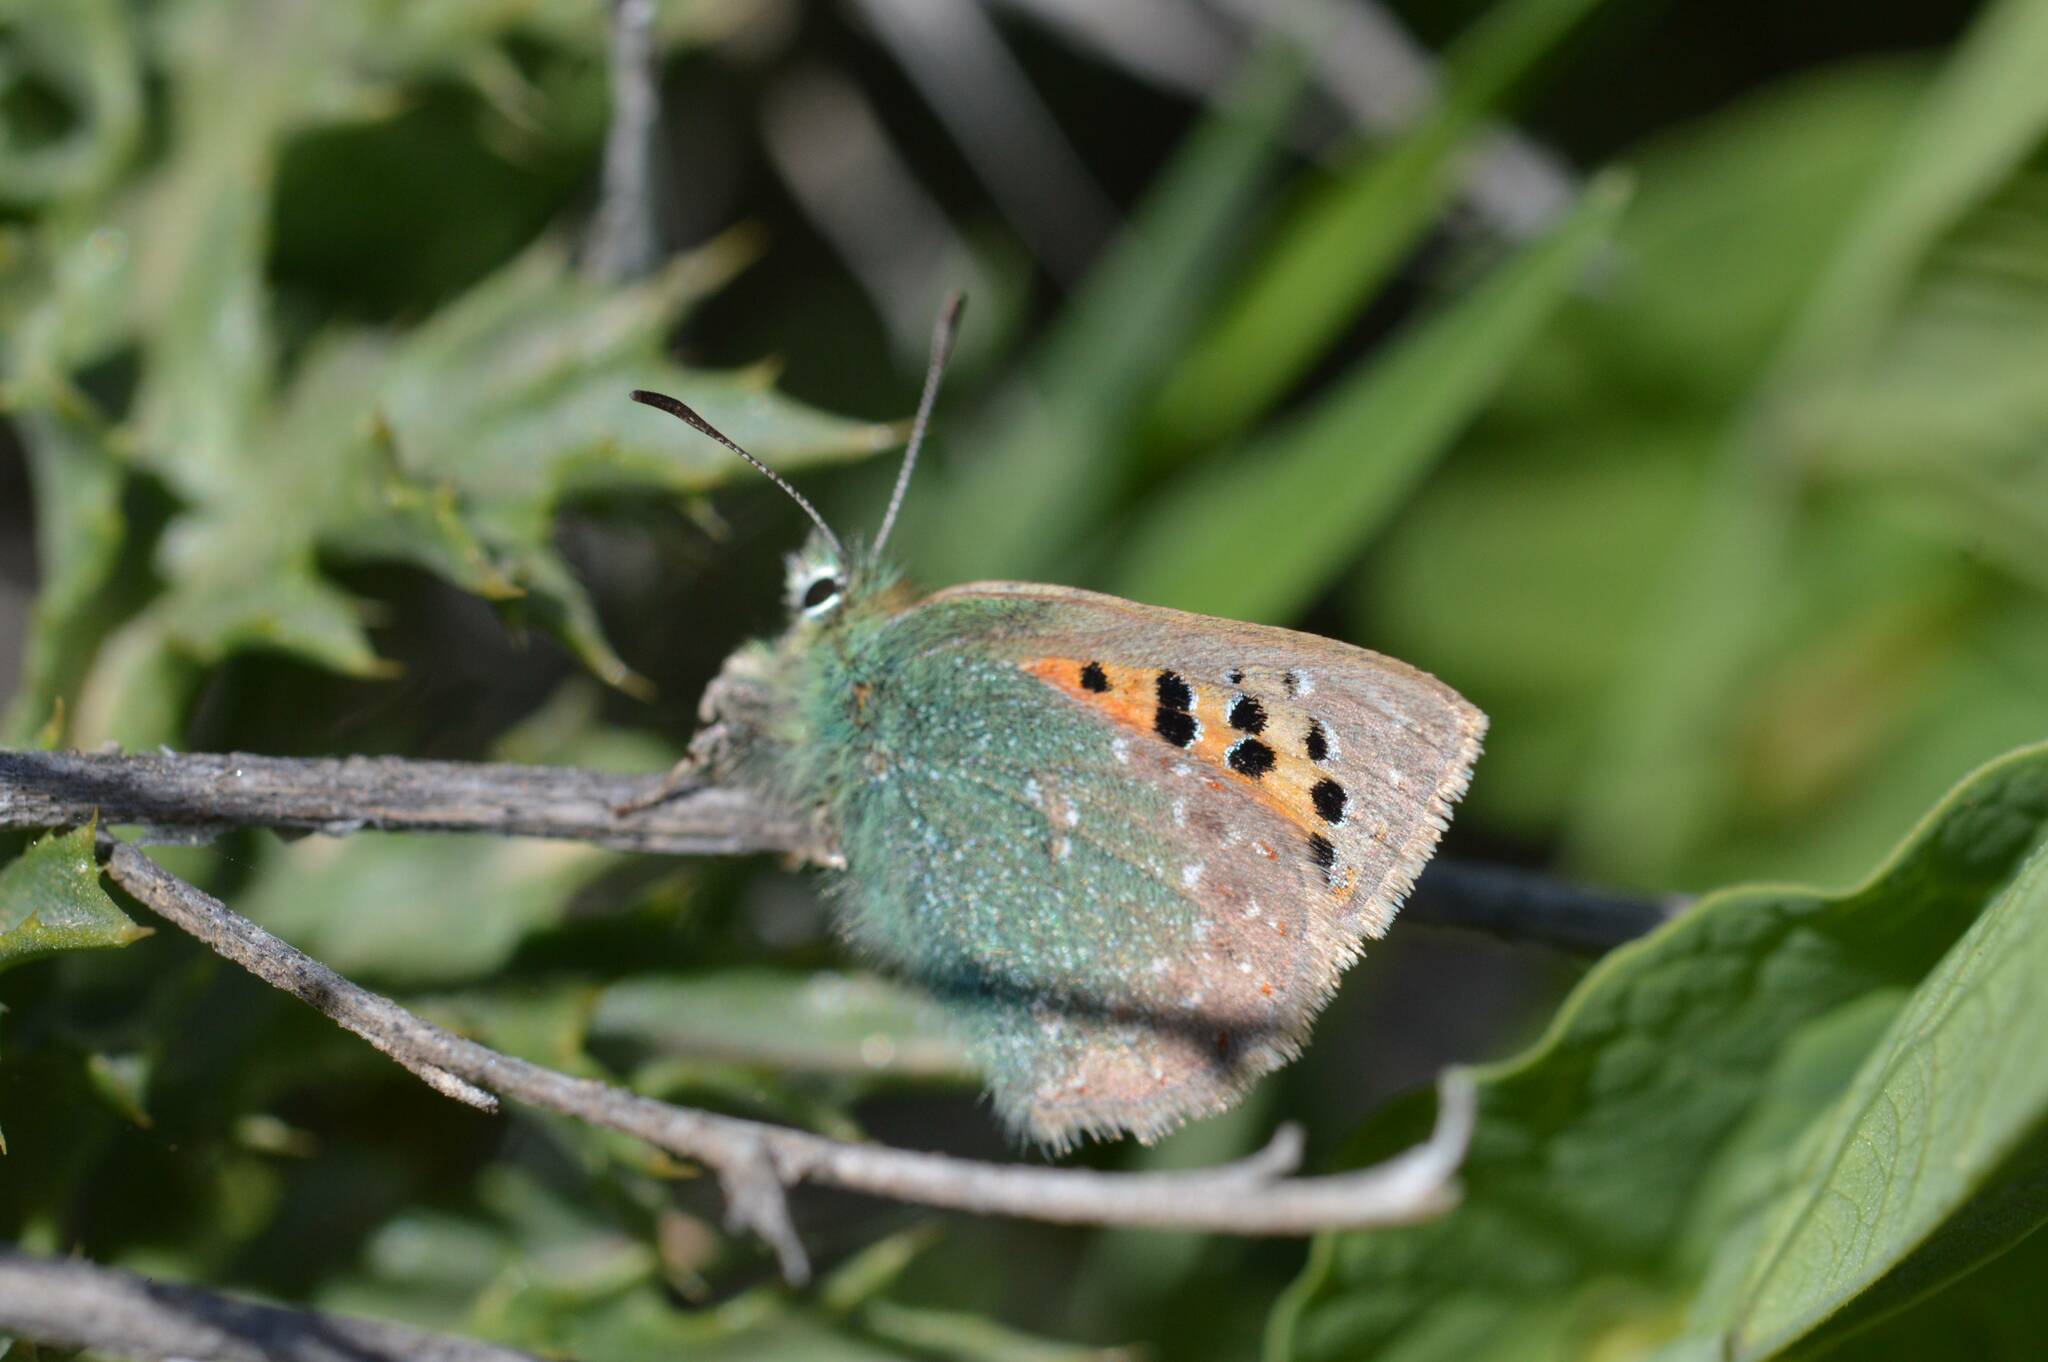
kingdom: Animalia
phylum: Arthropoda
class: Insecta
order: Lepidoptera
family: Lycaenidae
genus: Tomares
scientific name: Tomares ballus
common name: Provence hairstreak
